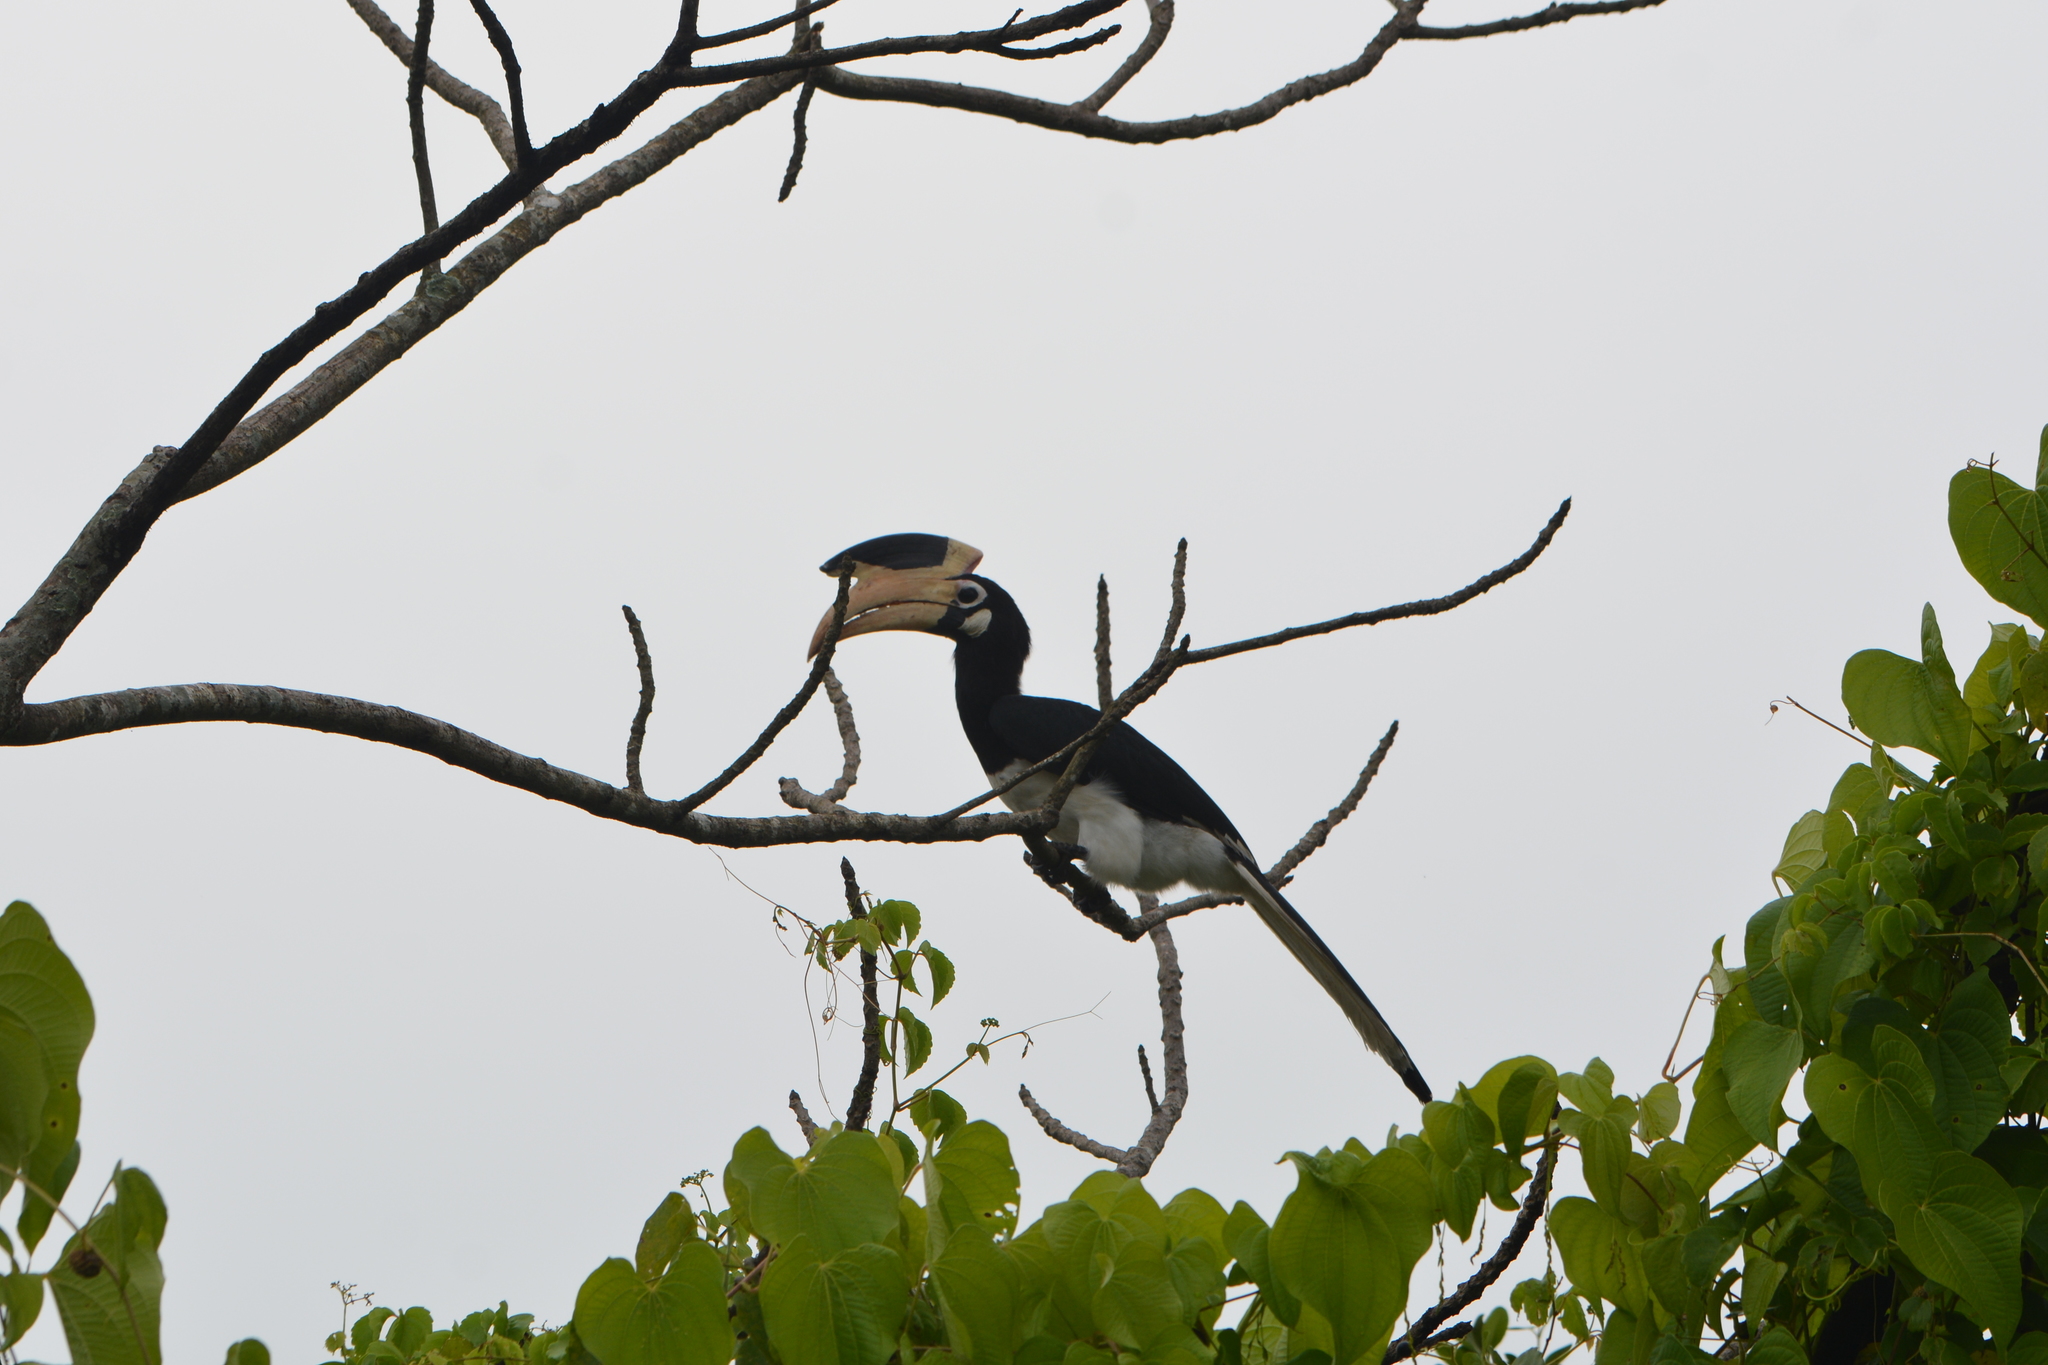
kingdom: Animalia
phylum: Chordata
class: Aves
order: Bucerotiformes
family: Bucerotidae
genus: Anthracoceros
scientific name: Anthracoceros coronatus
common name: Malabar pied hornbill
